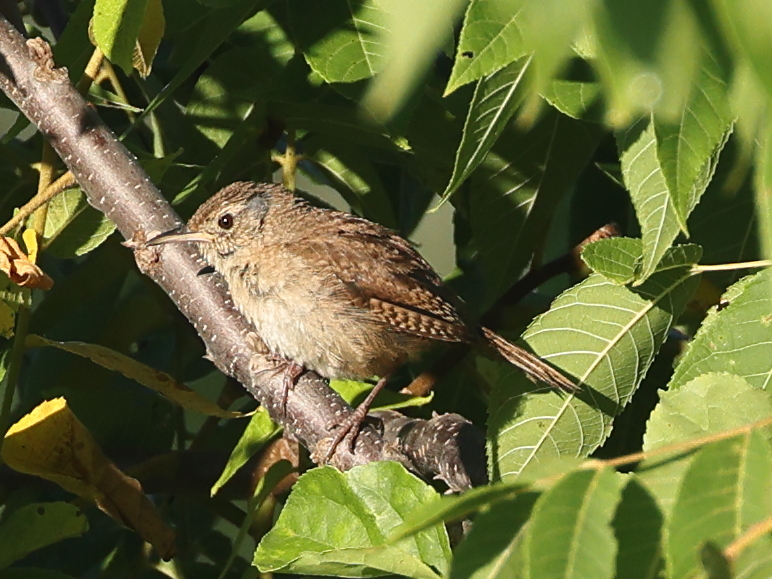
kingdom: Animalia
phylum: Chordata
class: Aves
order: Passeriformes
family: Troglodytidae
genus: Troglodytes
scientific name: Troglodytes aedon
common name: House wren
